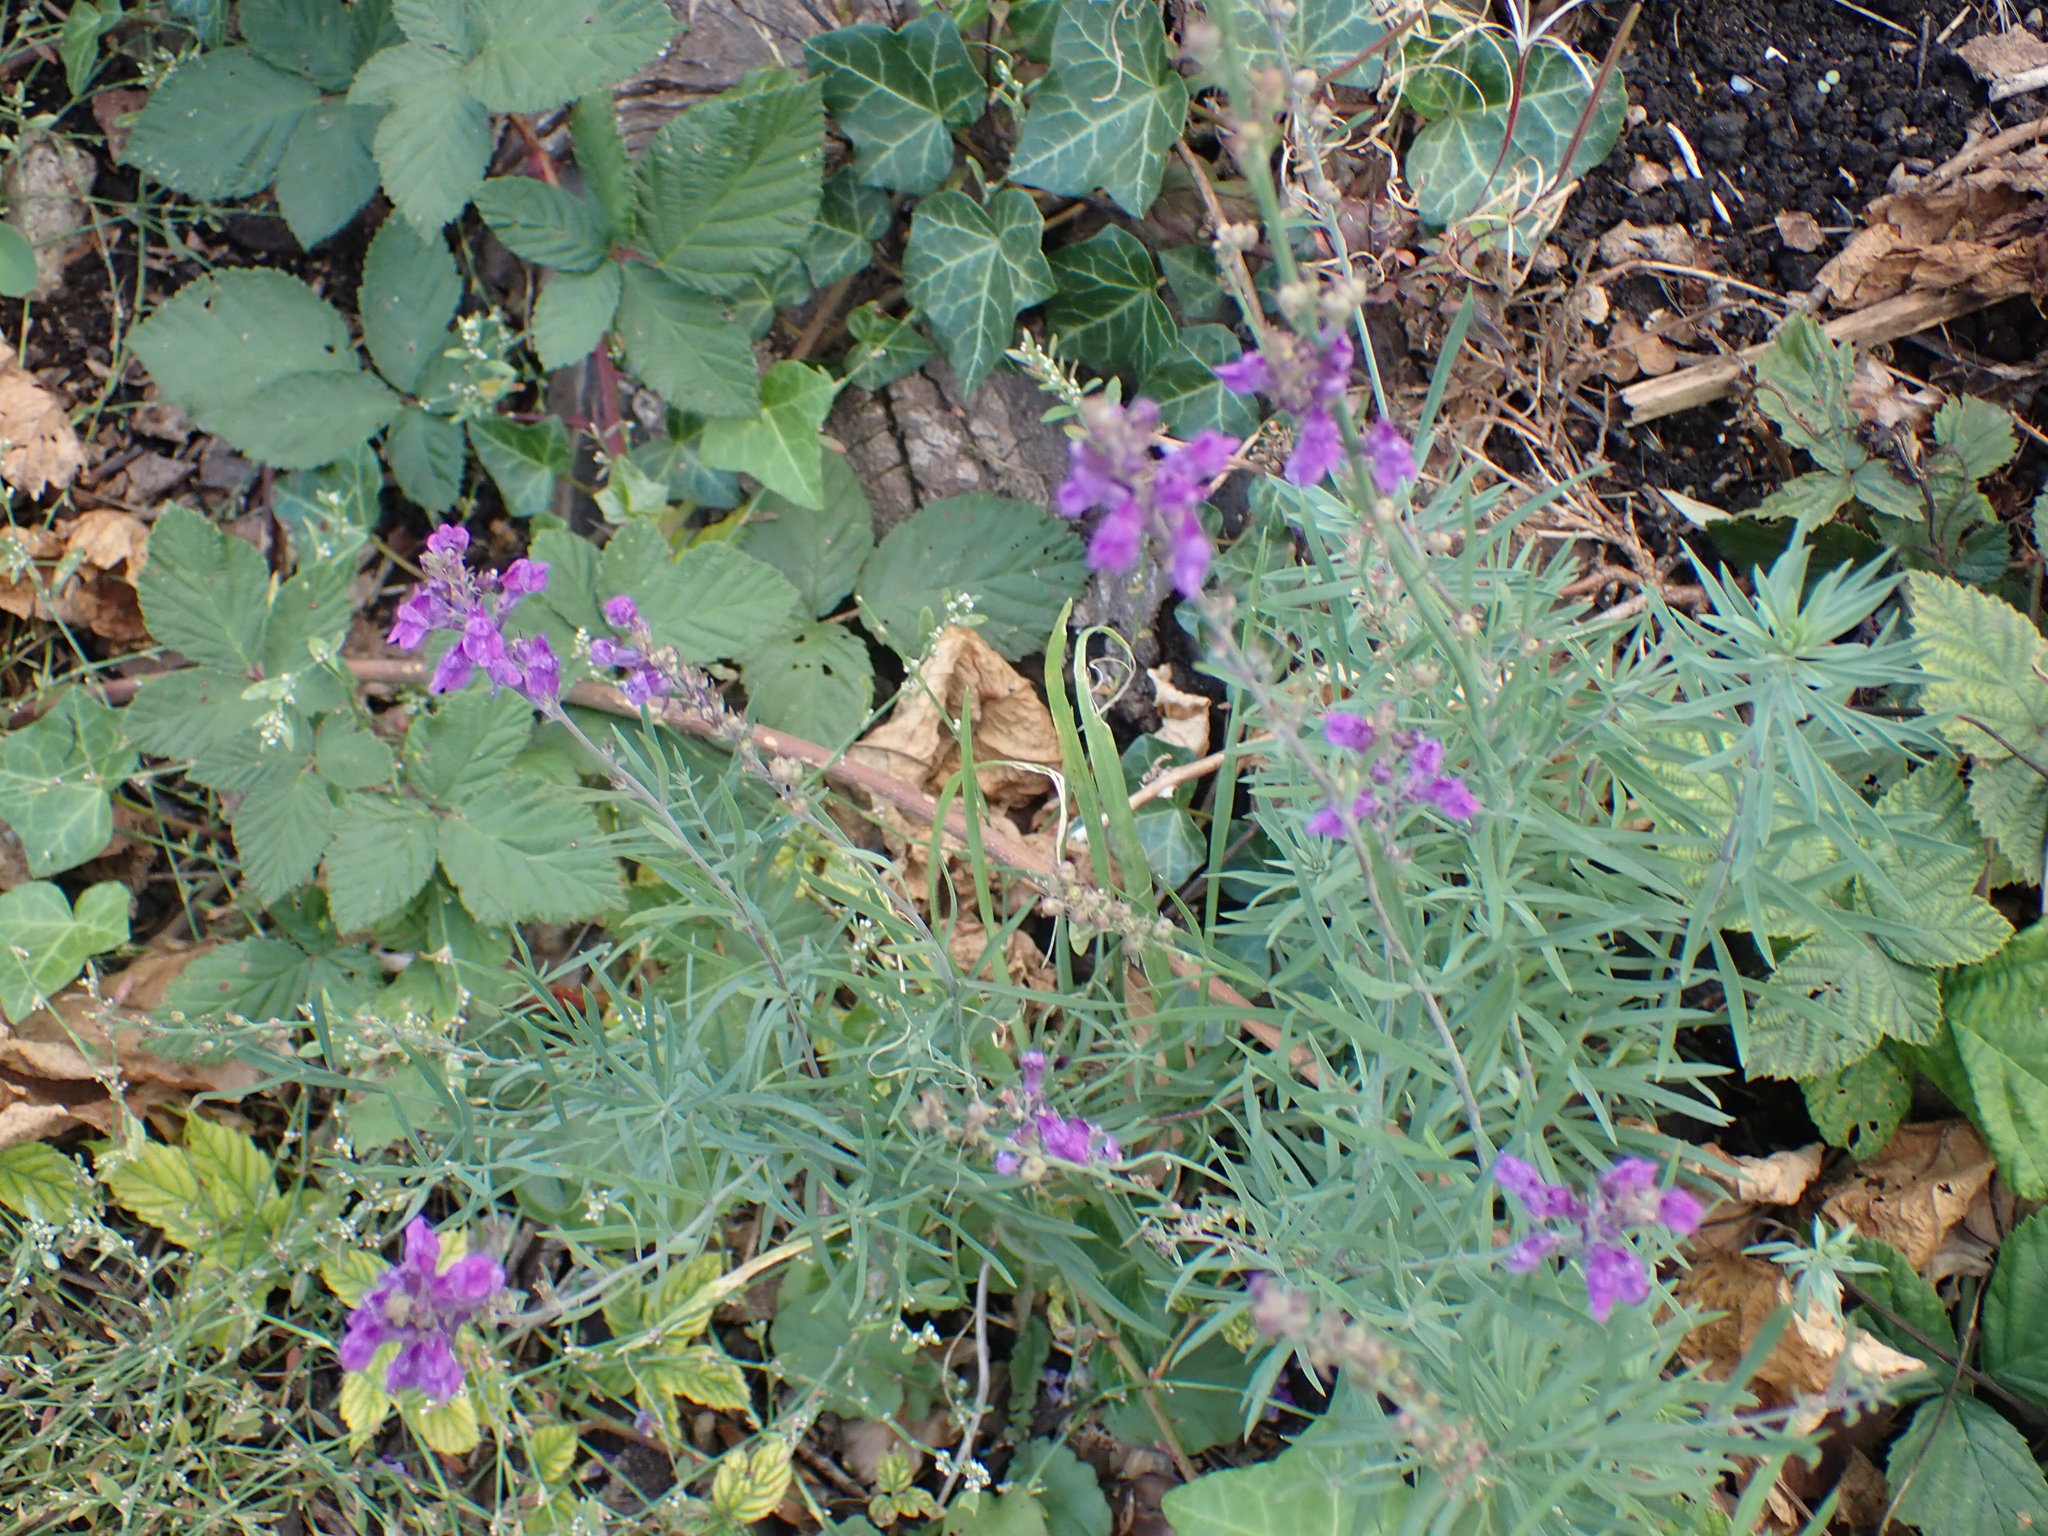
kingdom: Plantae
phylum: Tracheophyta
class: Magnoliopsida
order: Lamiales
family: Plantaginaceae
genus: Linaria
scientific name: Linaria purpurea
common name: Purple toadflax
